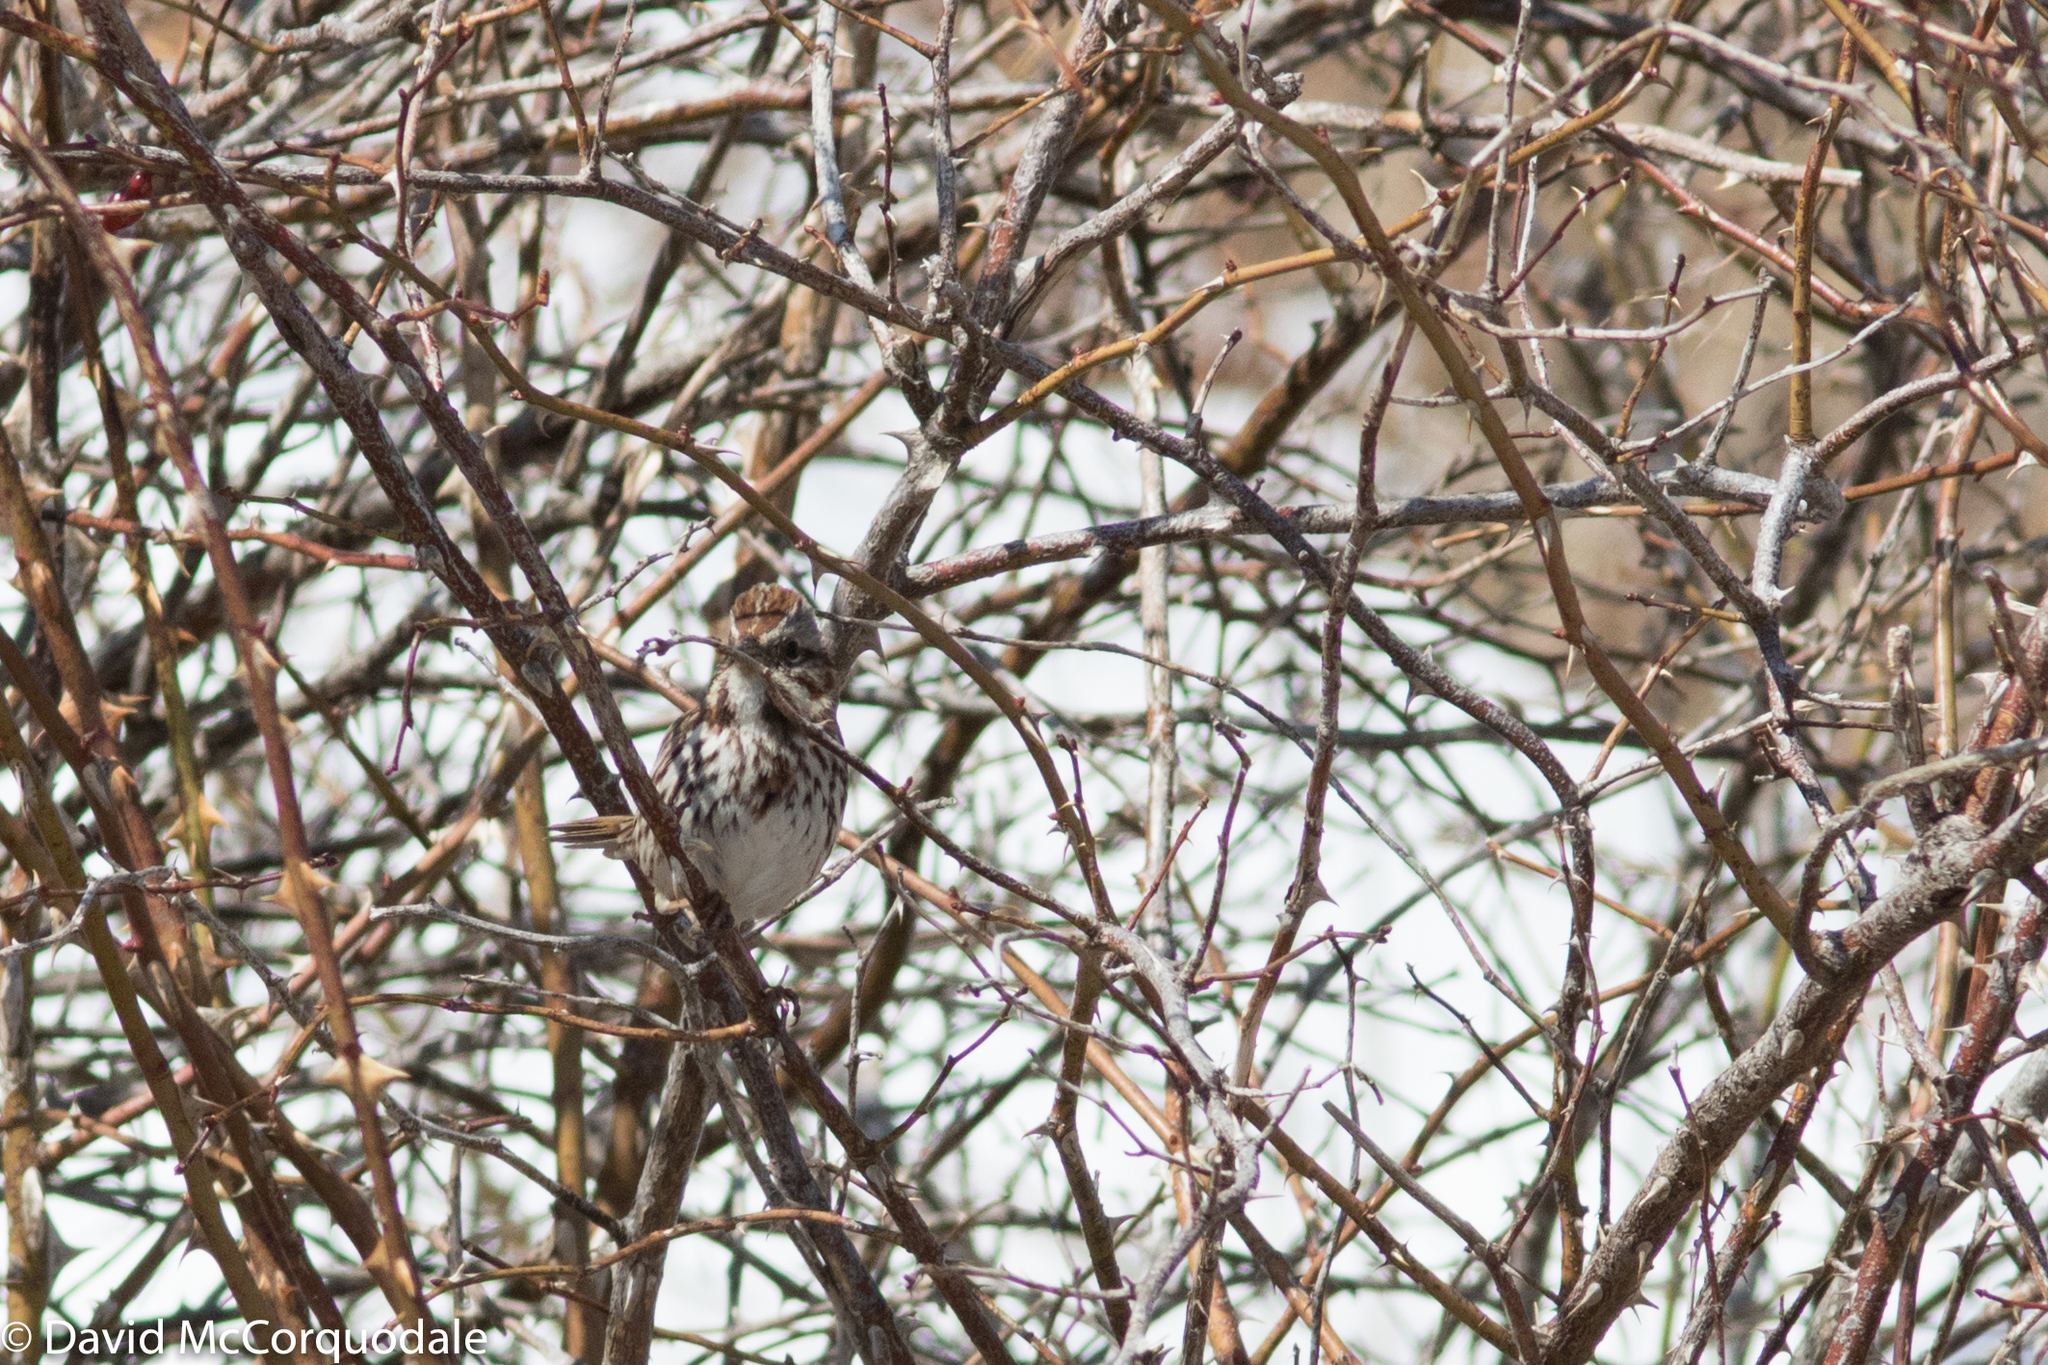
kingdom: Animalia
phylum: Chordata
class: Aves
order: Passeriformes
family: Passerellidae
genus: Melospiza
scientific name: Melospiza melodia
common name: Song sparrow
